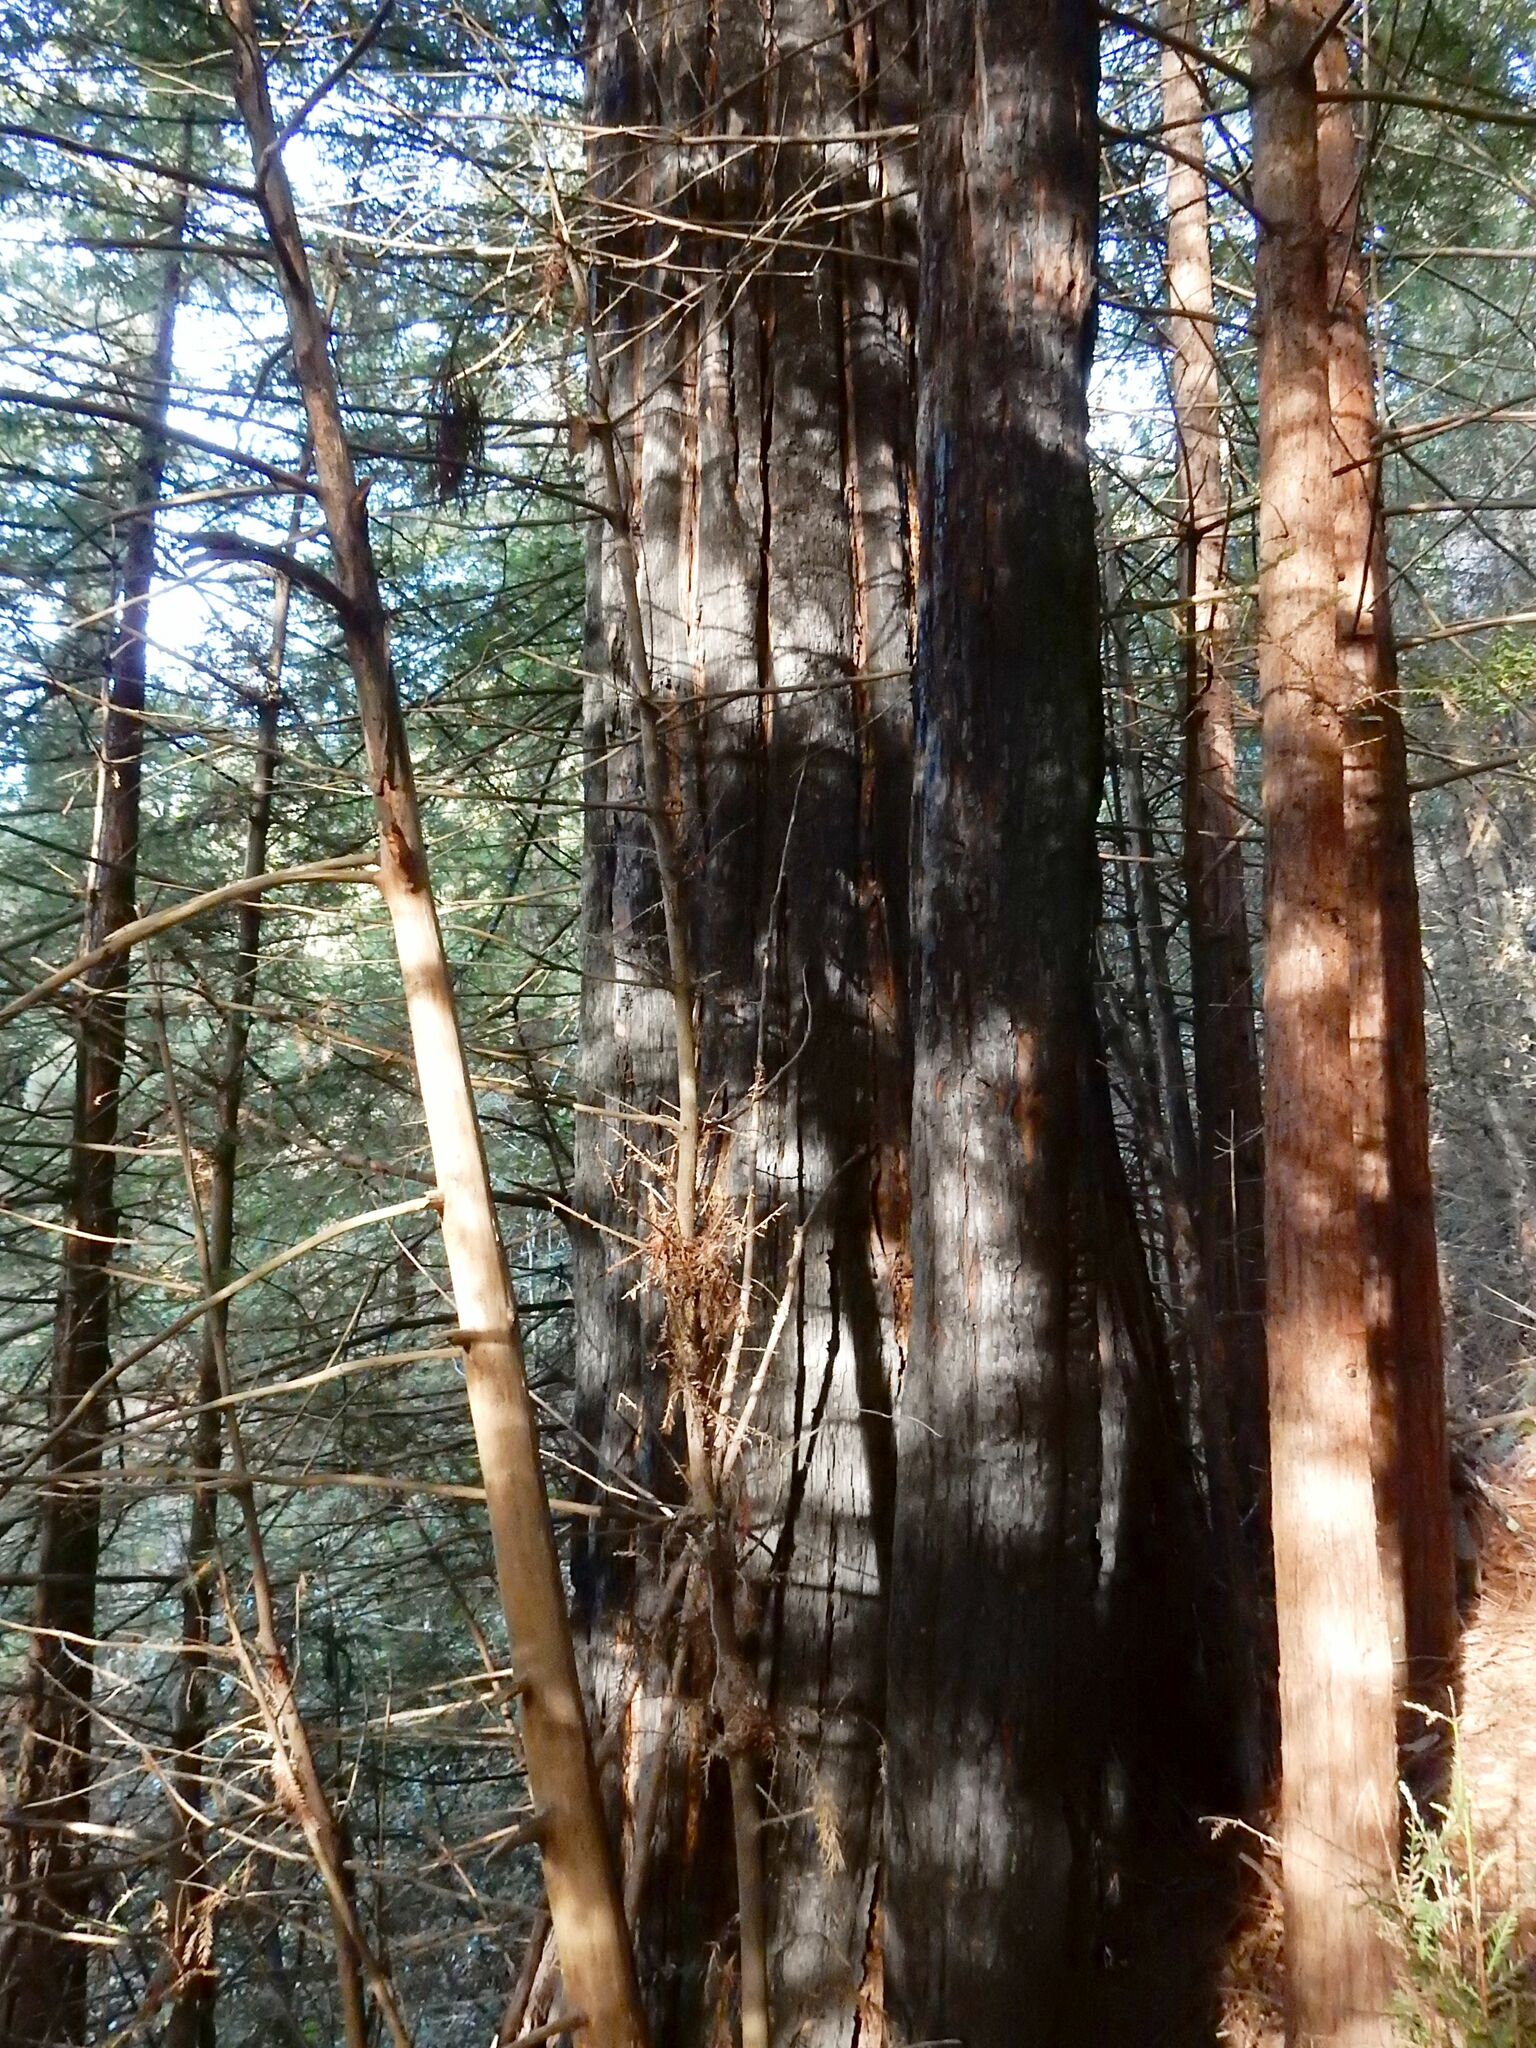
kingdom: Plantae
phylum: Tracheophyta
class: Pinopsida
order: Pinales
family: Cupressaceae
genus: Sequoia
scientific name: Sequoia sempervirens
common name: Coast redwood
